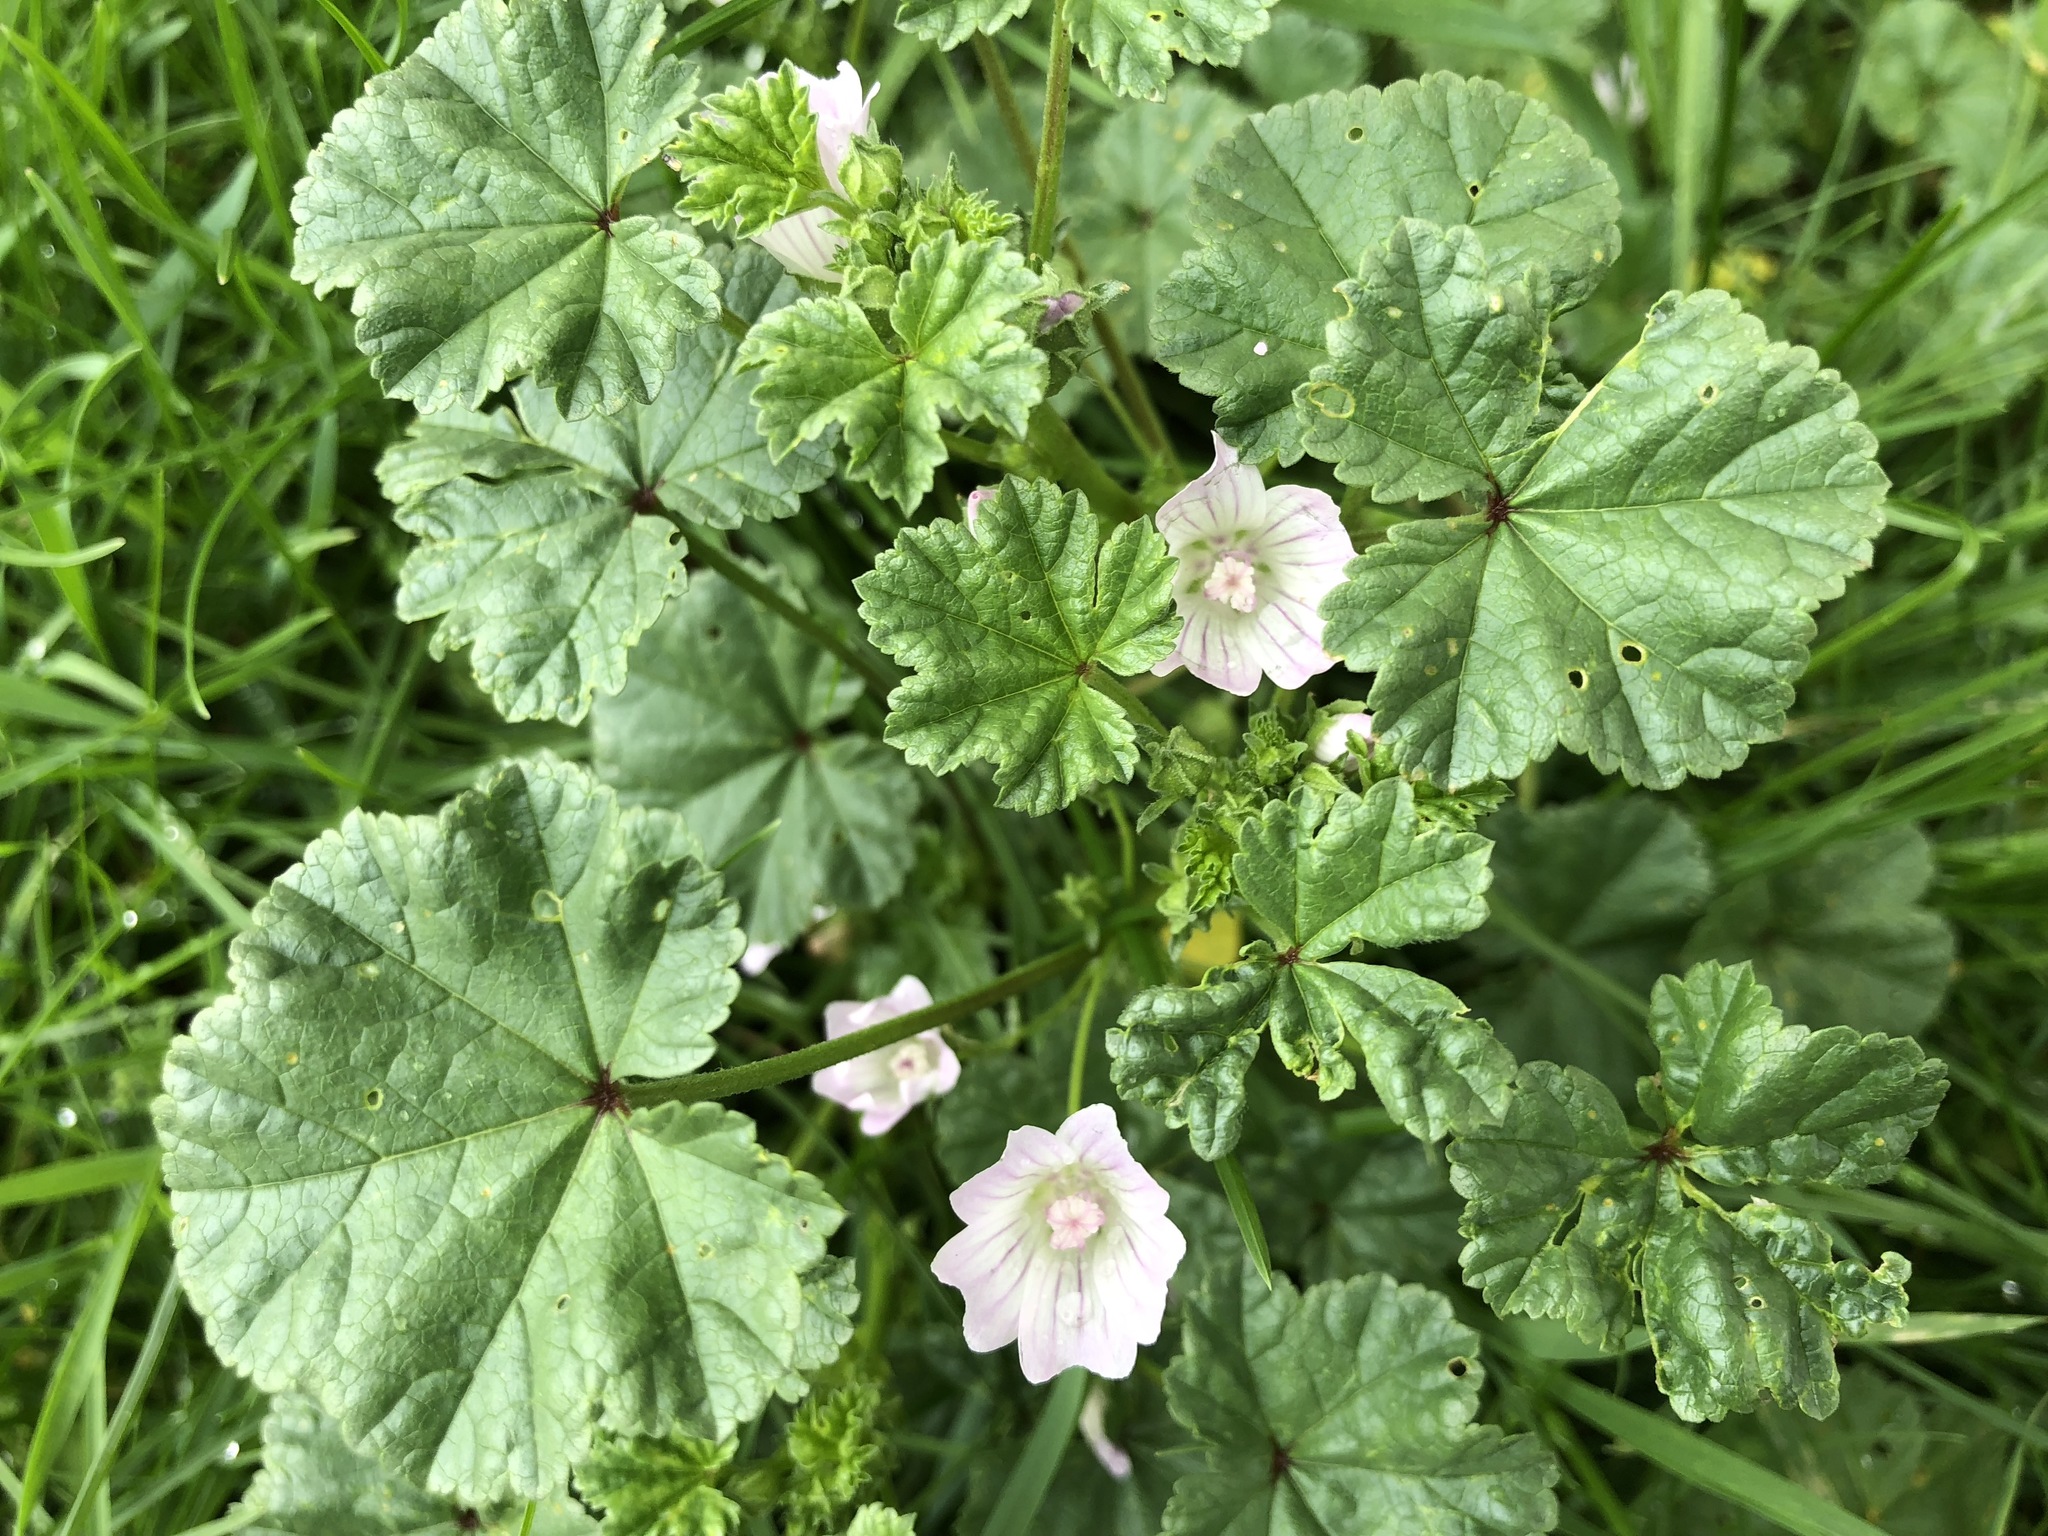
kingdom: Plantae
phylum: Tracheophyta
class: Magnoliopsida
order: Malvales
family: Malvaceae
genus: Malva
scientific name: Malva neglecta
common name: Common mallow
